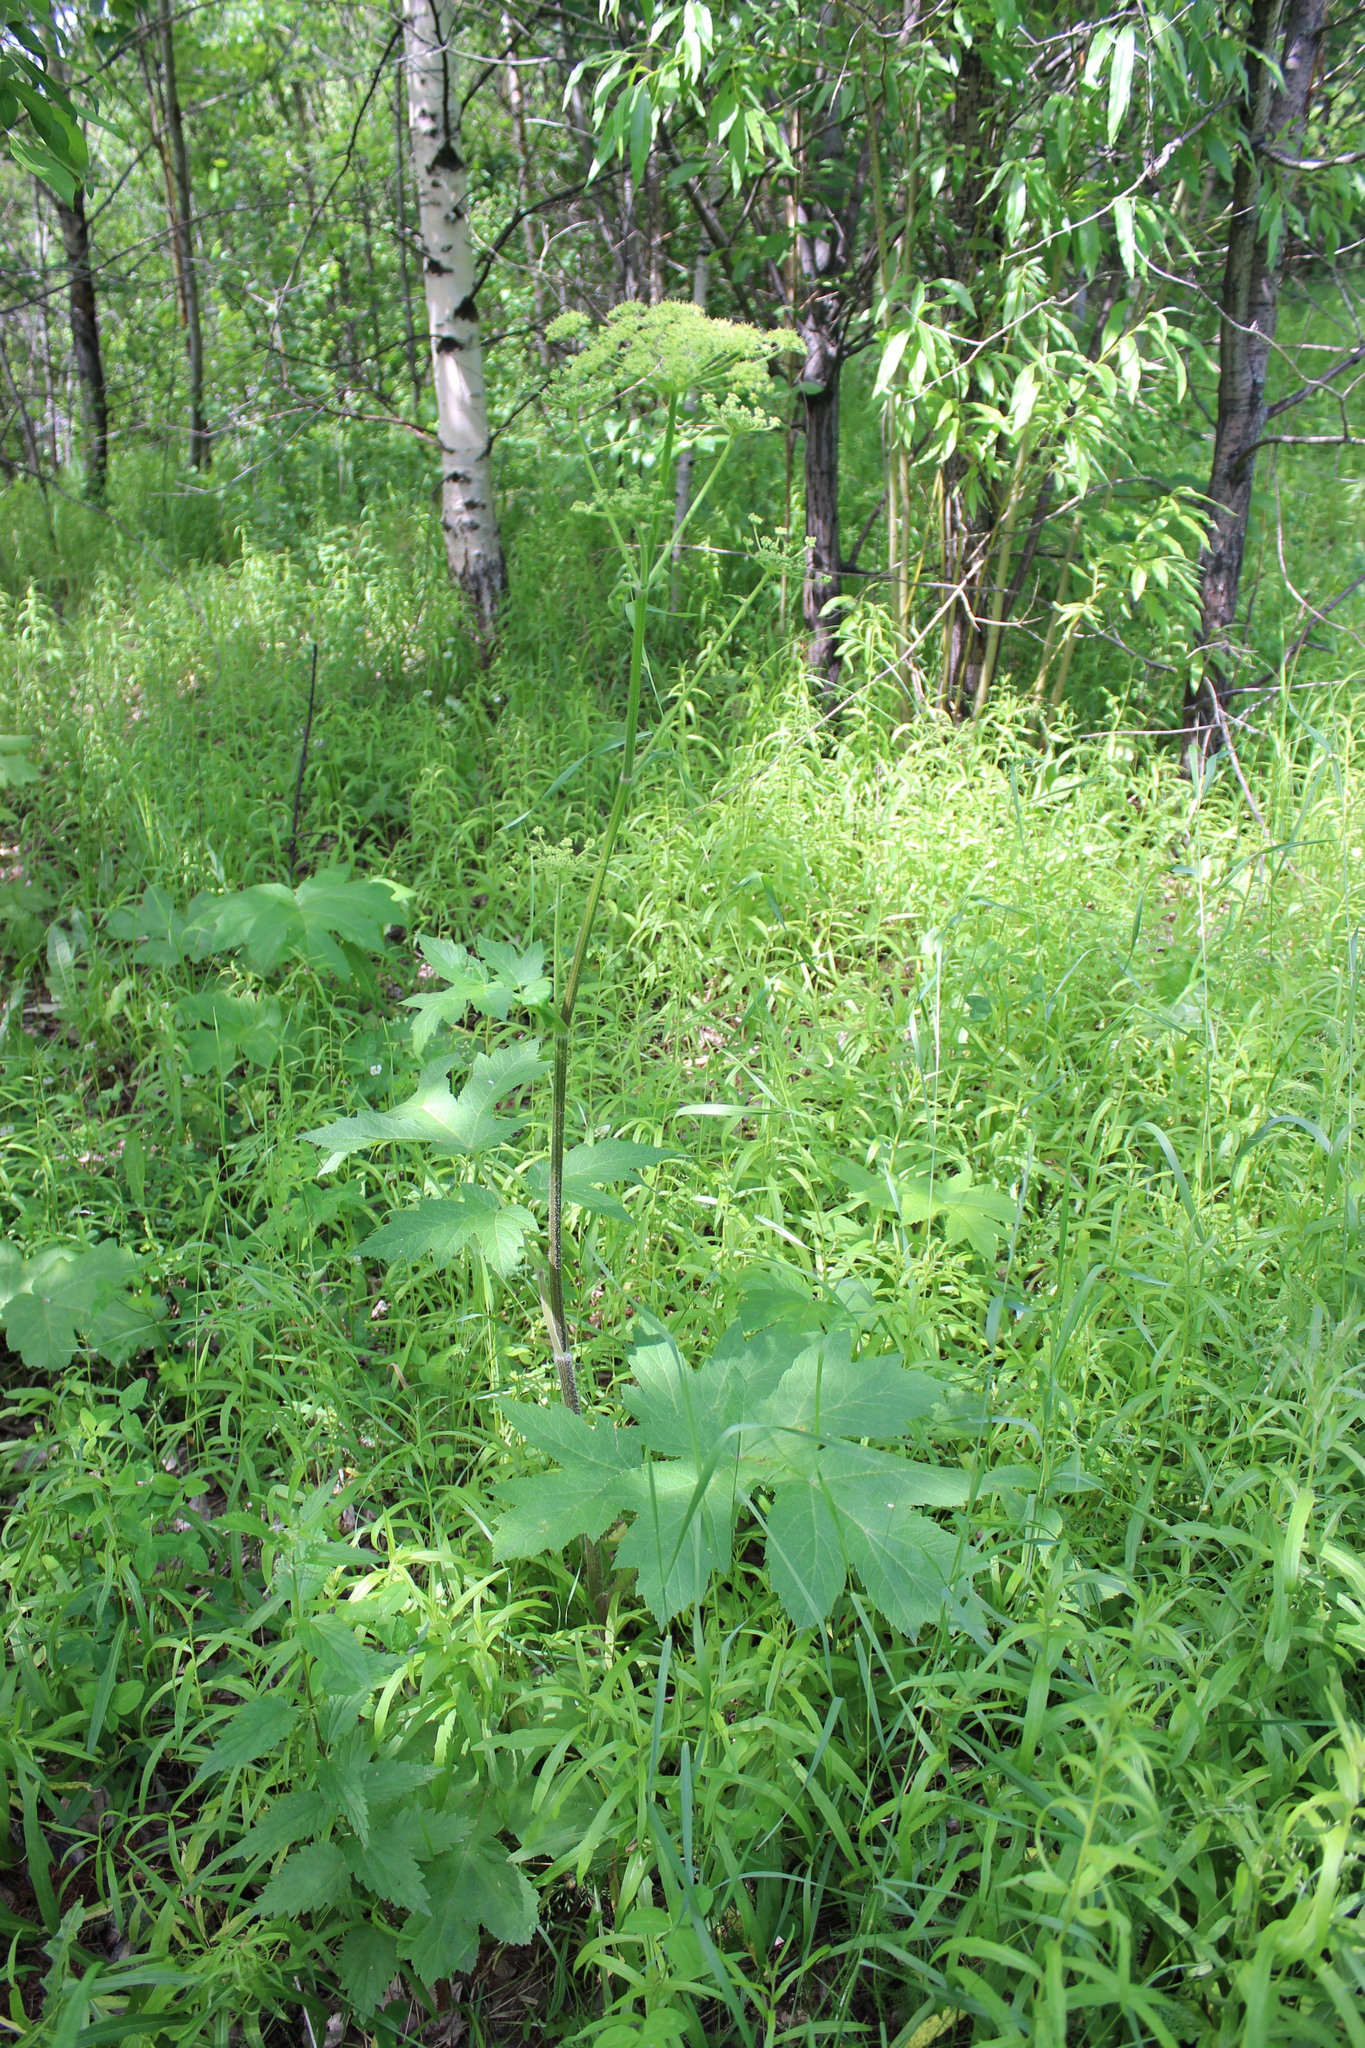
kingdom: Plantae
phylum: Tracheophyta
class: Magnoliopsida
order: Apiales
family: Apiaceae
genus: Heracleum
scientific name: Heracleum sphondylium
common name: Hogweed
